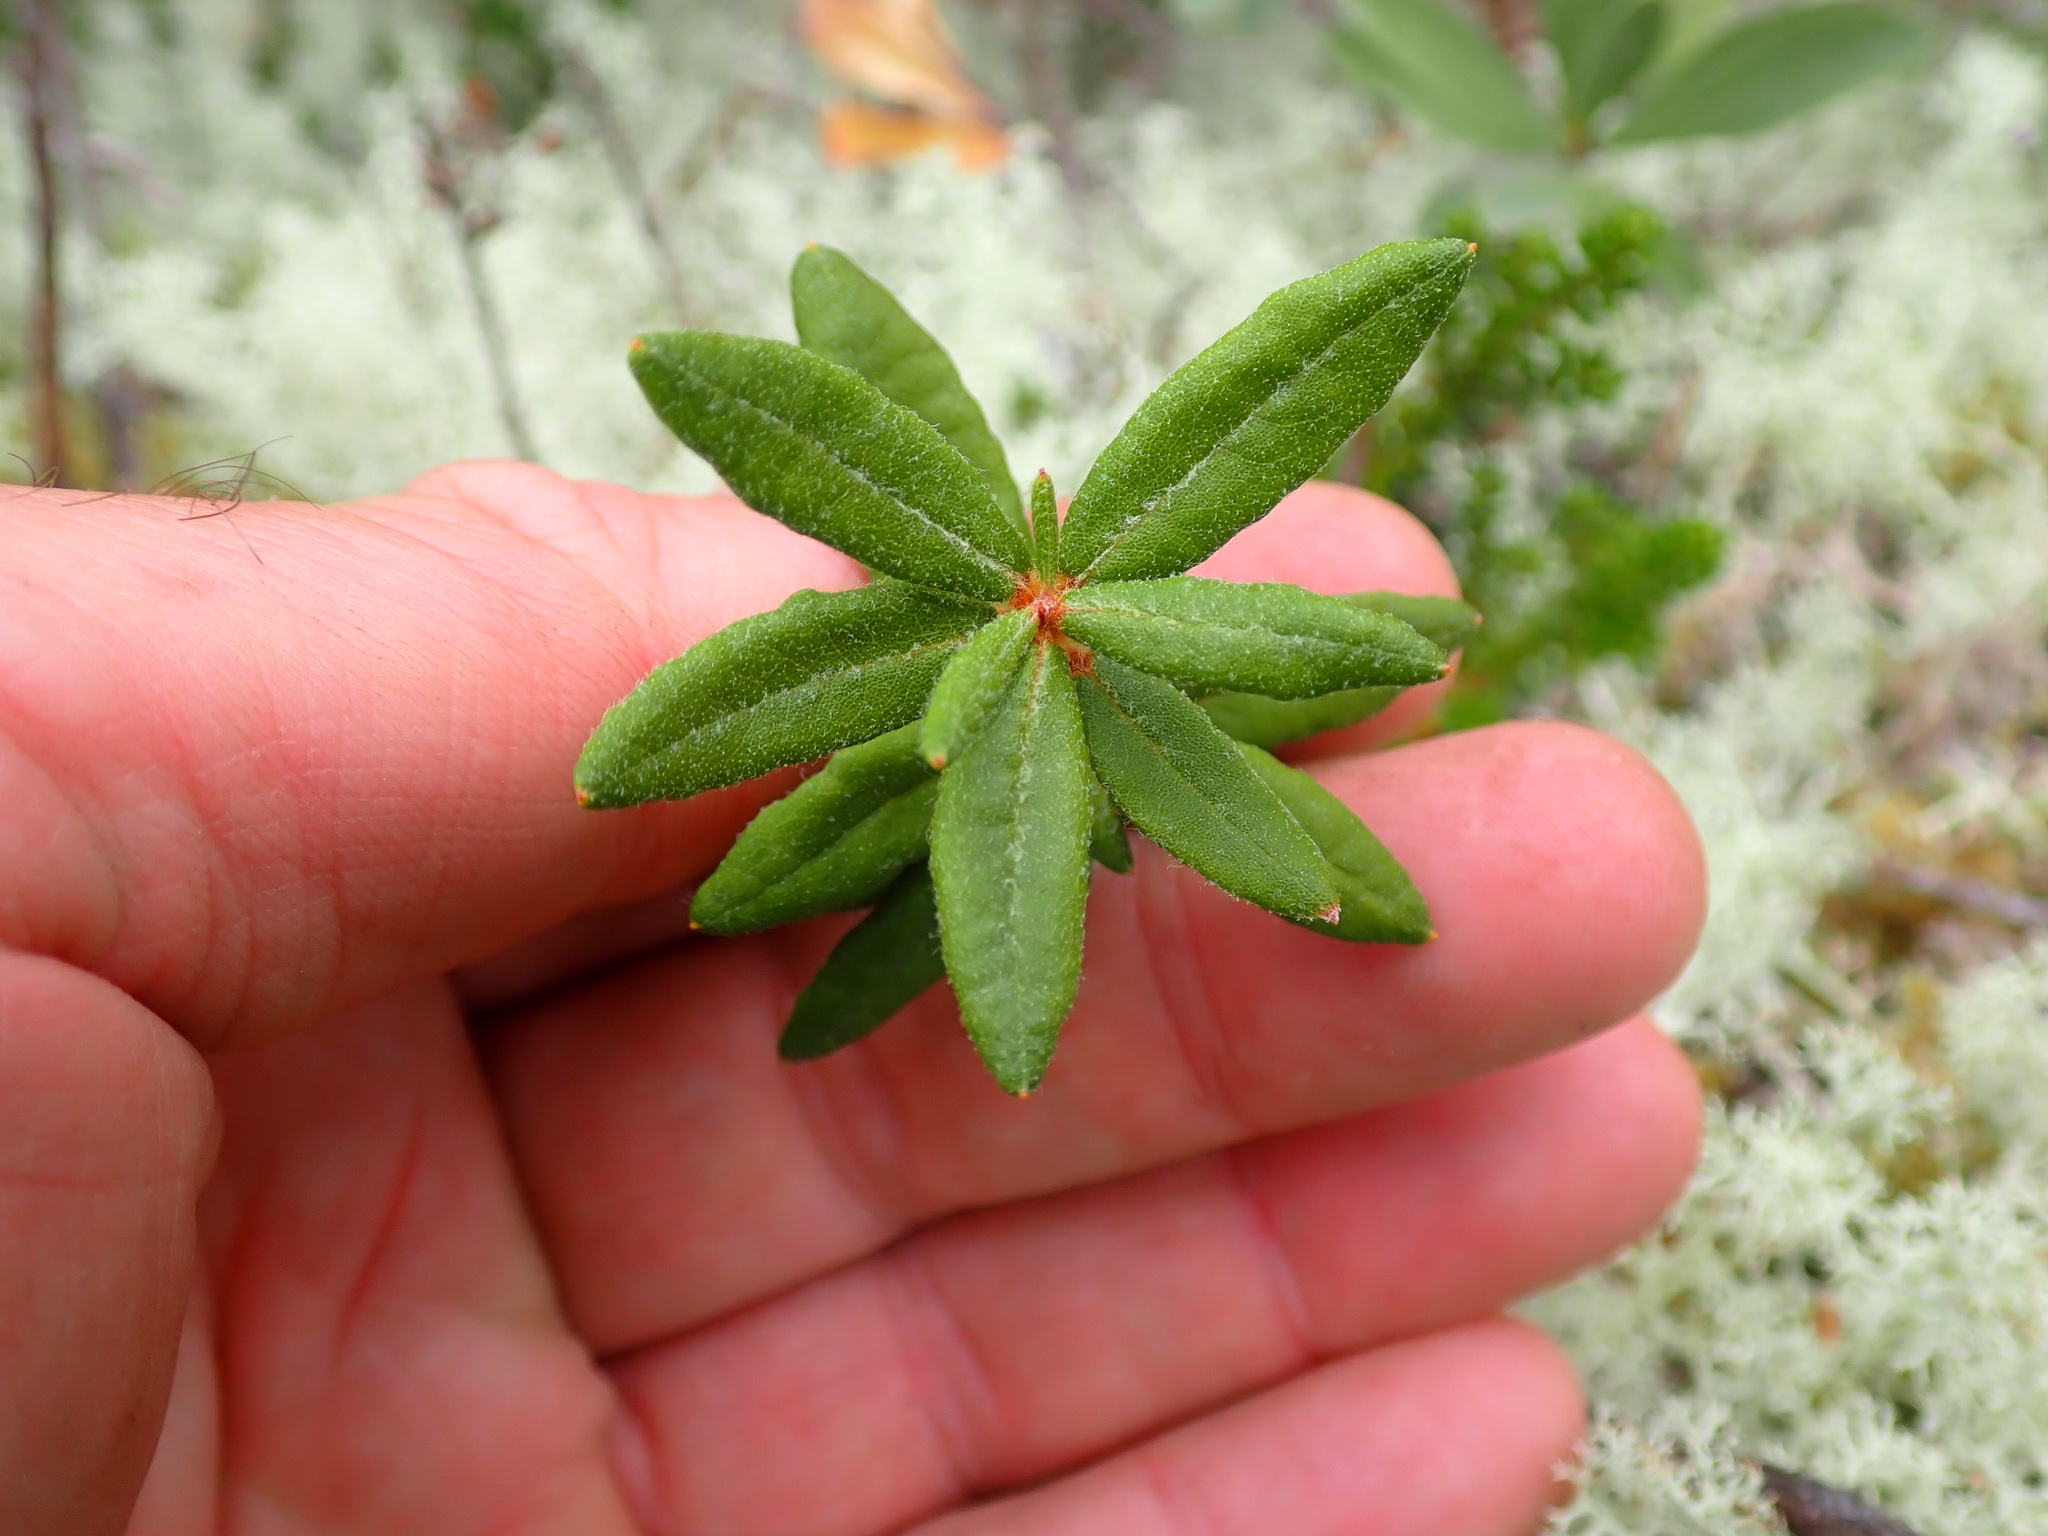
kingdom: Plantae
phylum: Tracheophyta
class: Magnoliopsida
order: Ericales
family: Ericaceae
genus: Rhododendron
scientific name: Rhododendron groenlandicum
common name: Bog labrador tea
